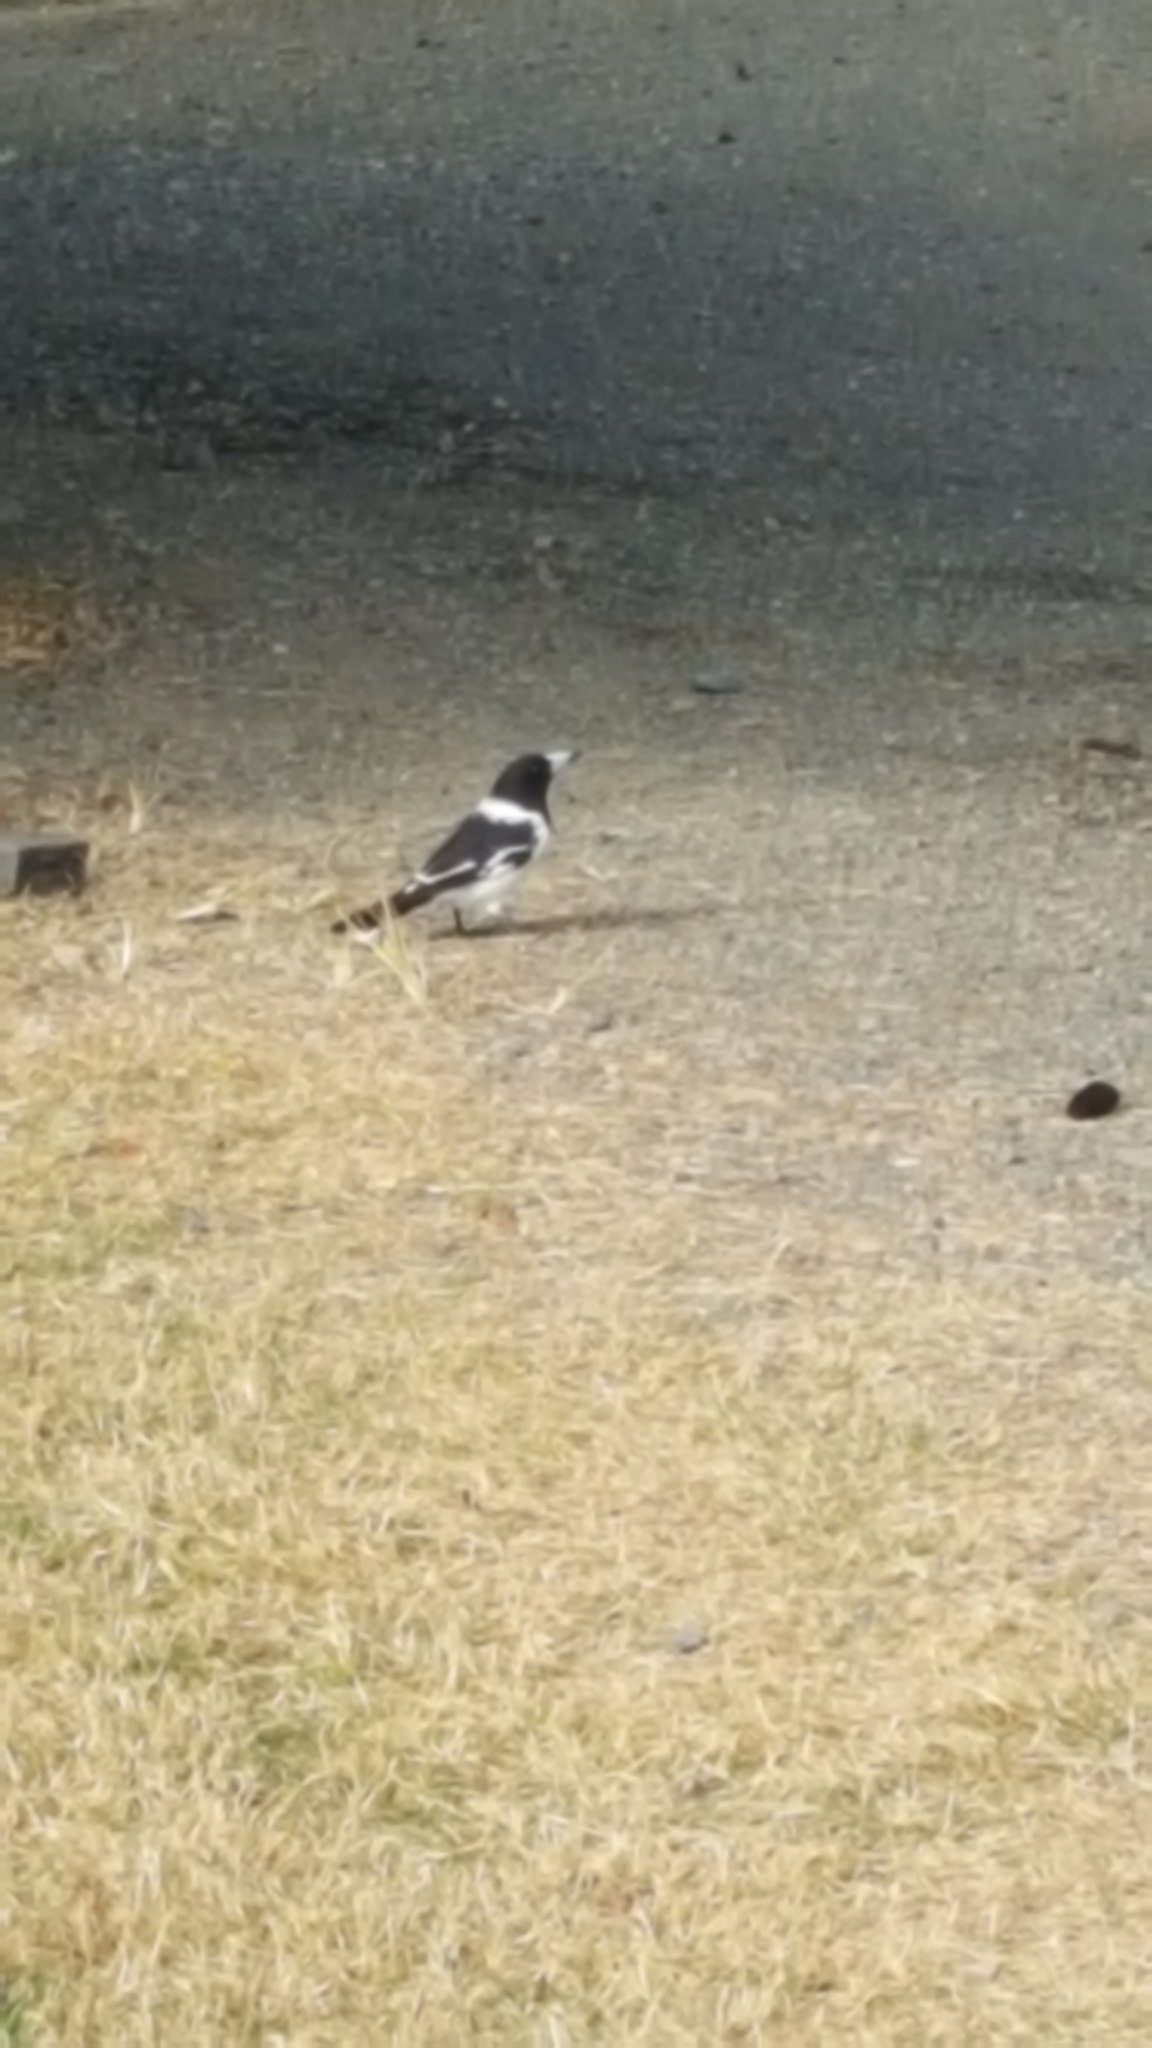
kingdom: Animalia
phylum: Chordata
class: Aves
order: Passeriformes
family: Cracticidae
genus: Cracticus
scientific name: Cracticus nigrogularis
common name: Pied butcherbird
